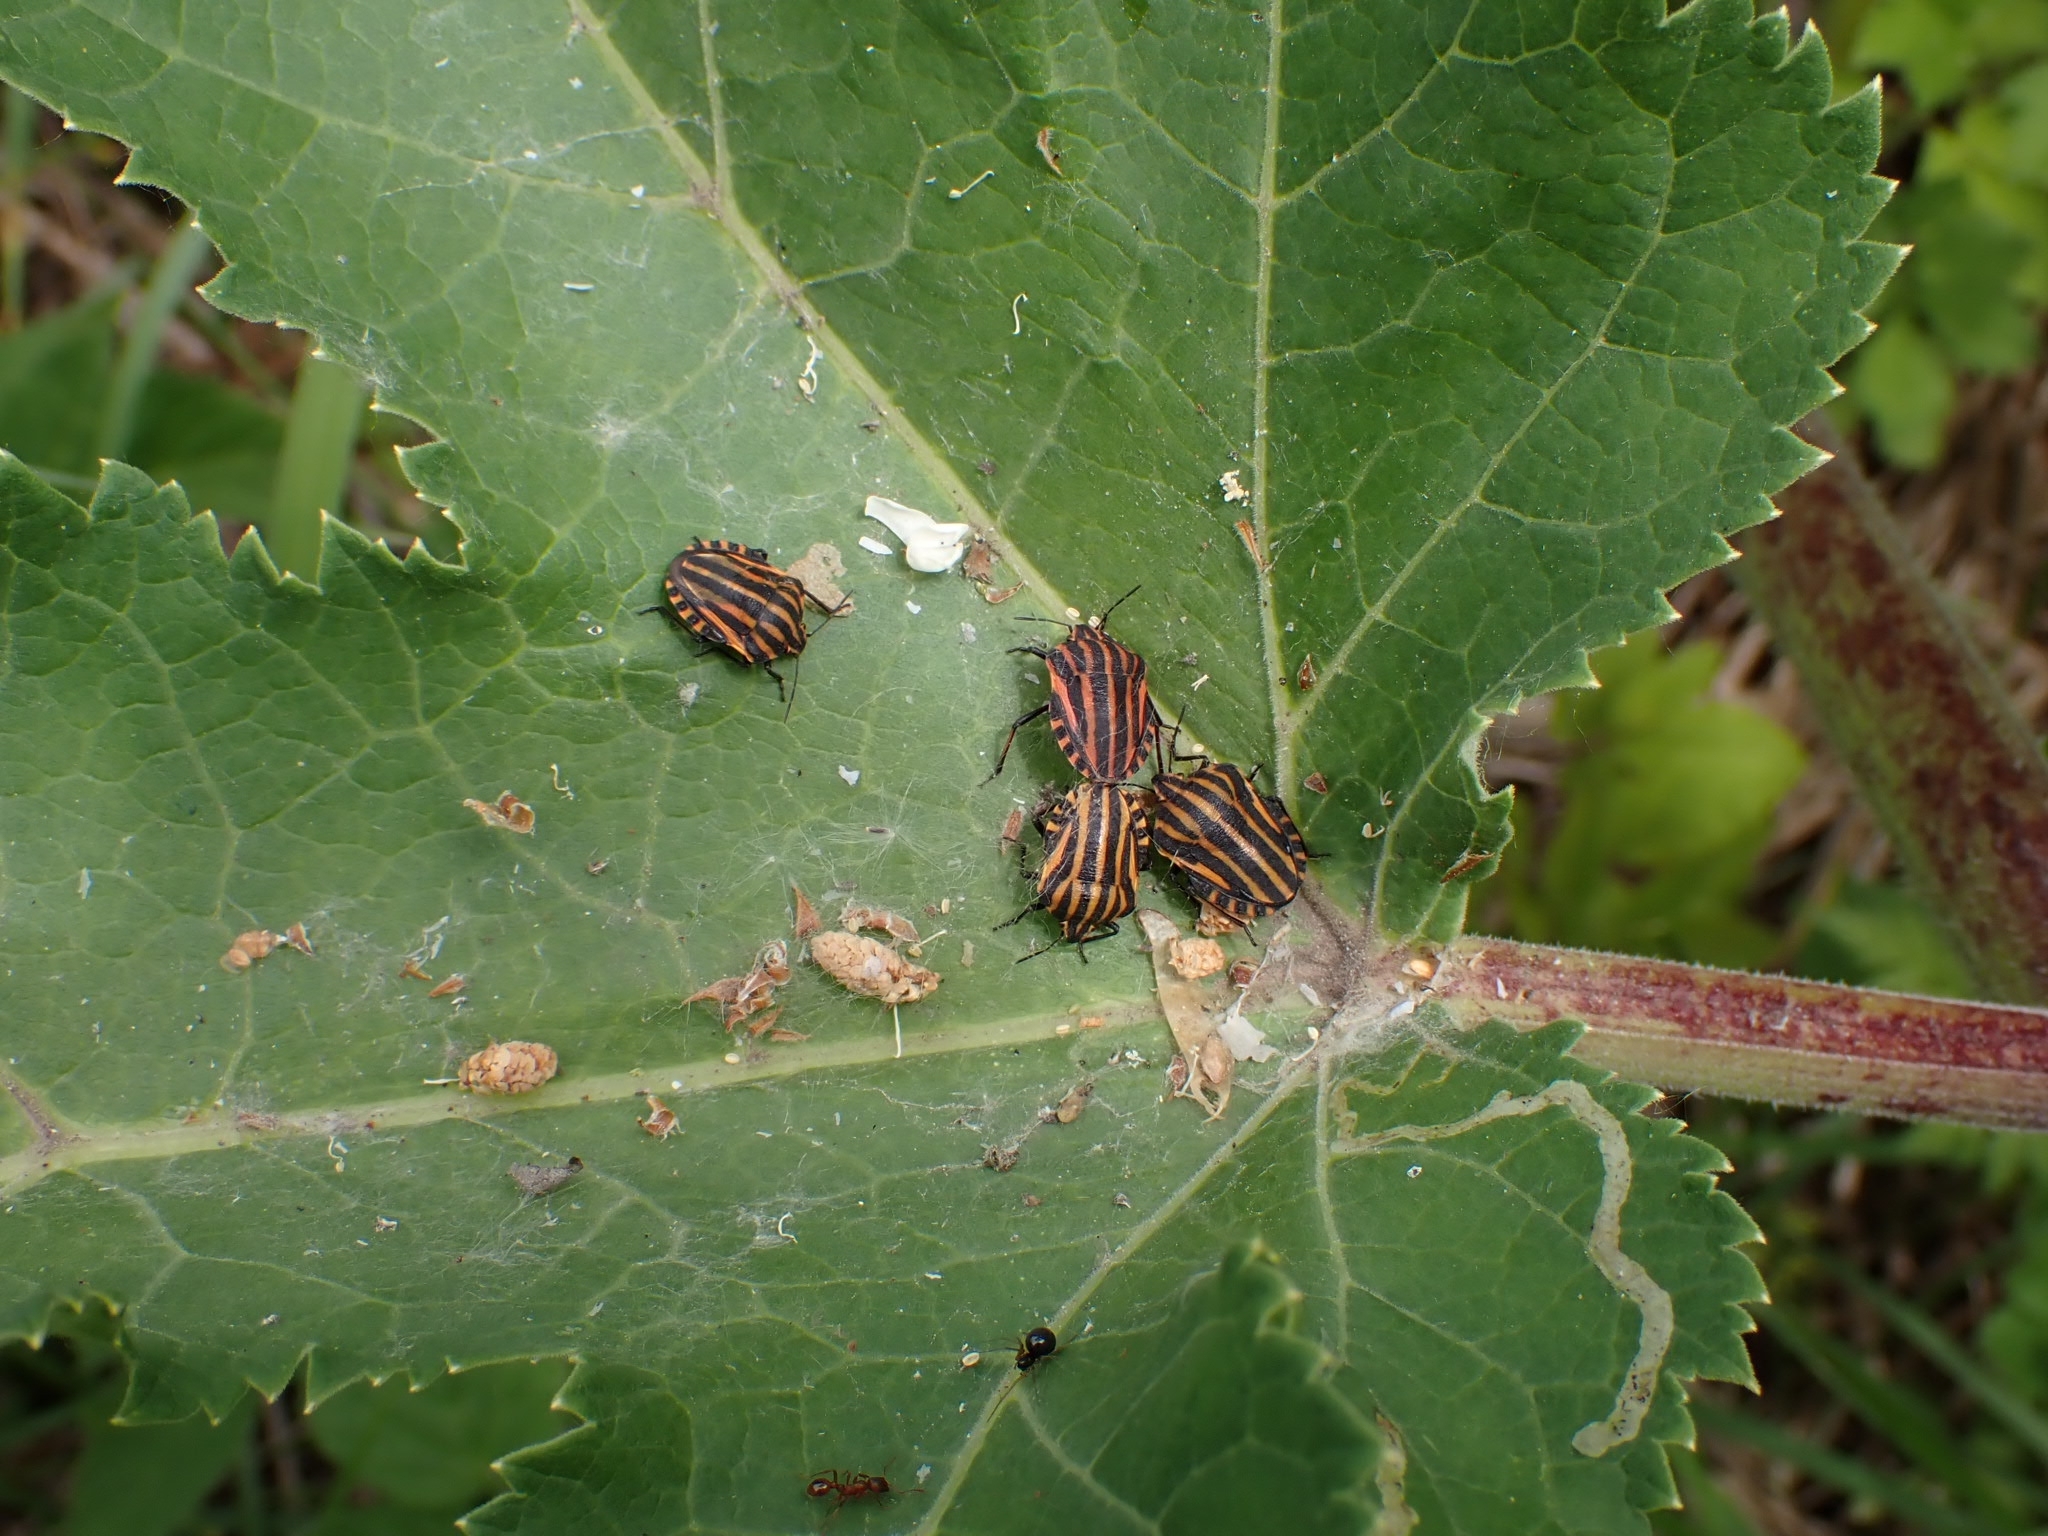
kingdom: Animalia
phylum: Arthropoda
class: Insecta
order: Hemiptera
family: Pentatomidae
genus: Graphosoma
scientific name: Graphosoma italicum
